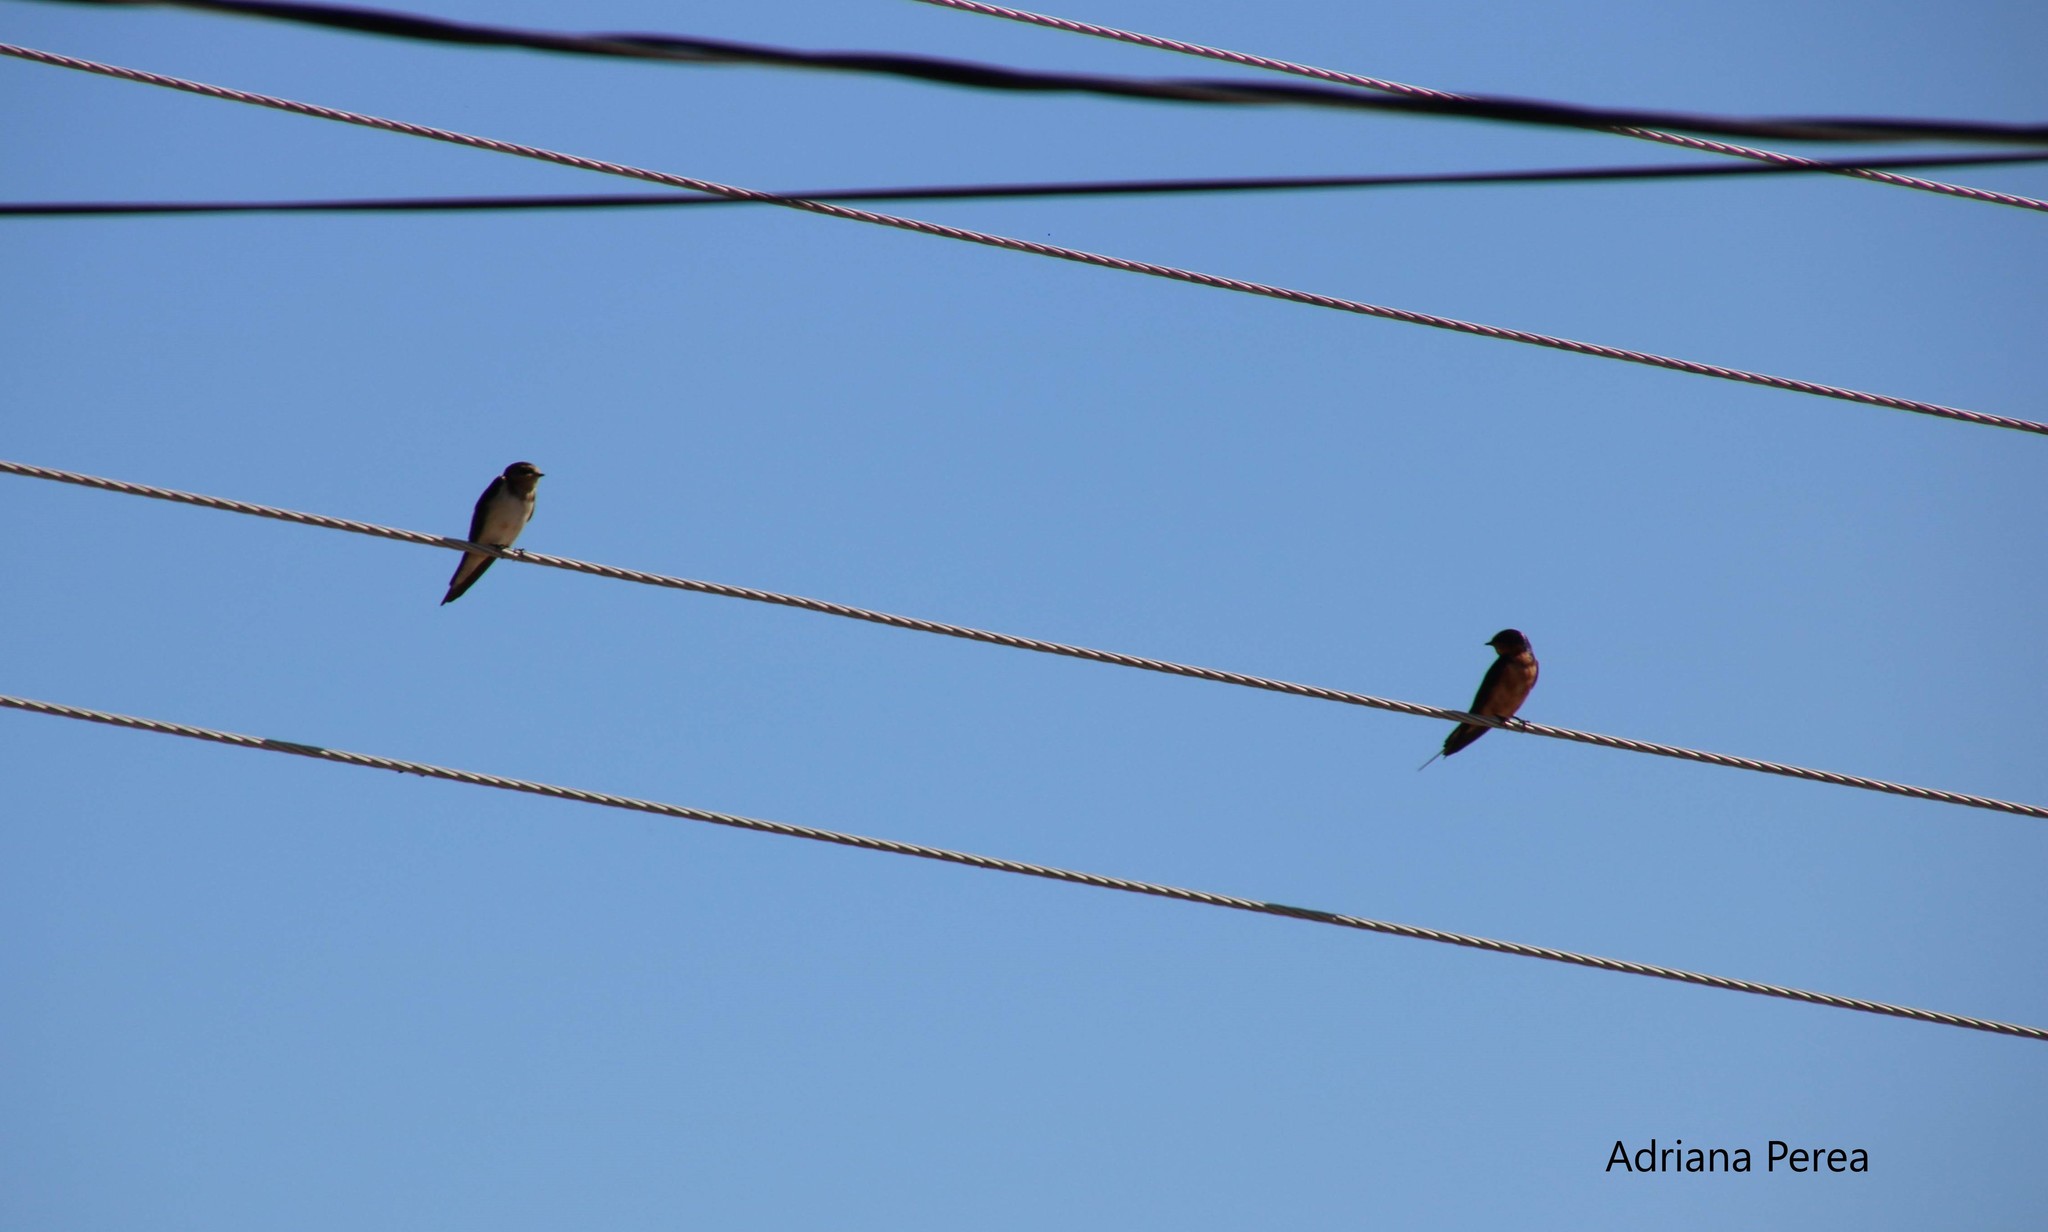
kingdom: Animalia
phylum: Chordata
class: Aves
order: Passeriformes
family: Hirundinidae
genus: Hirundo
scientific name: Hirundo rustica
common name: Barn swallow
